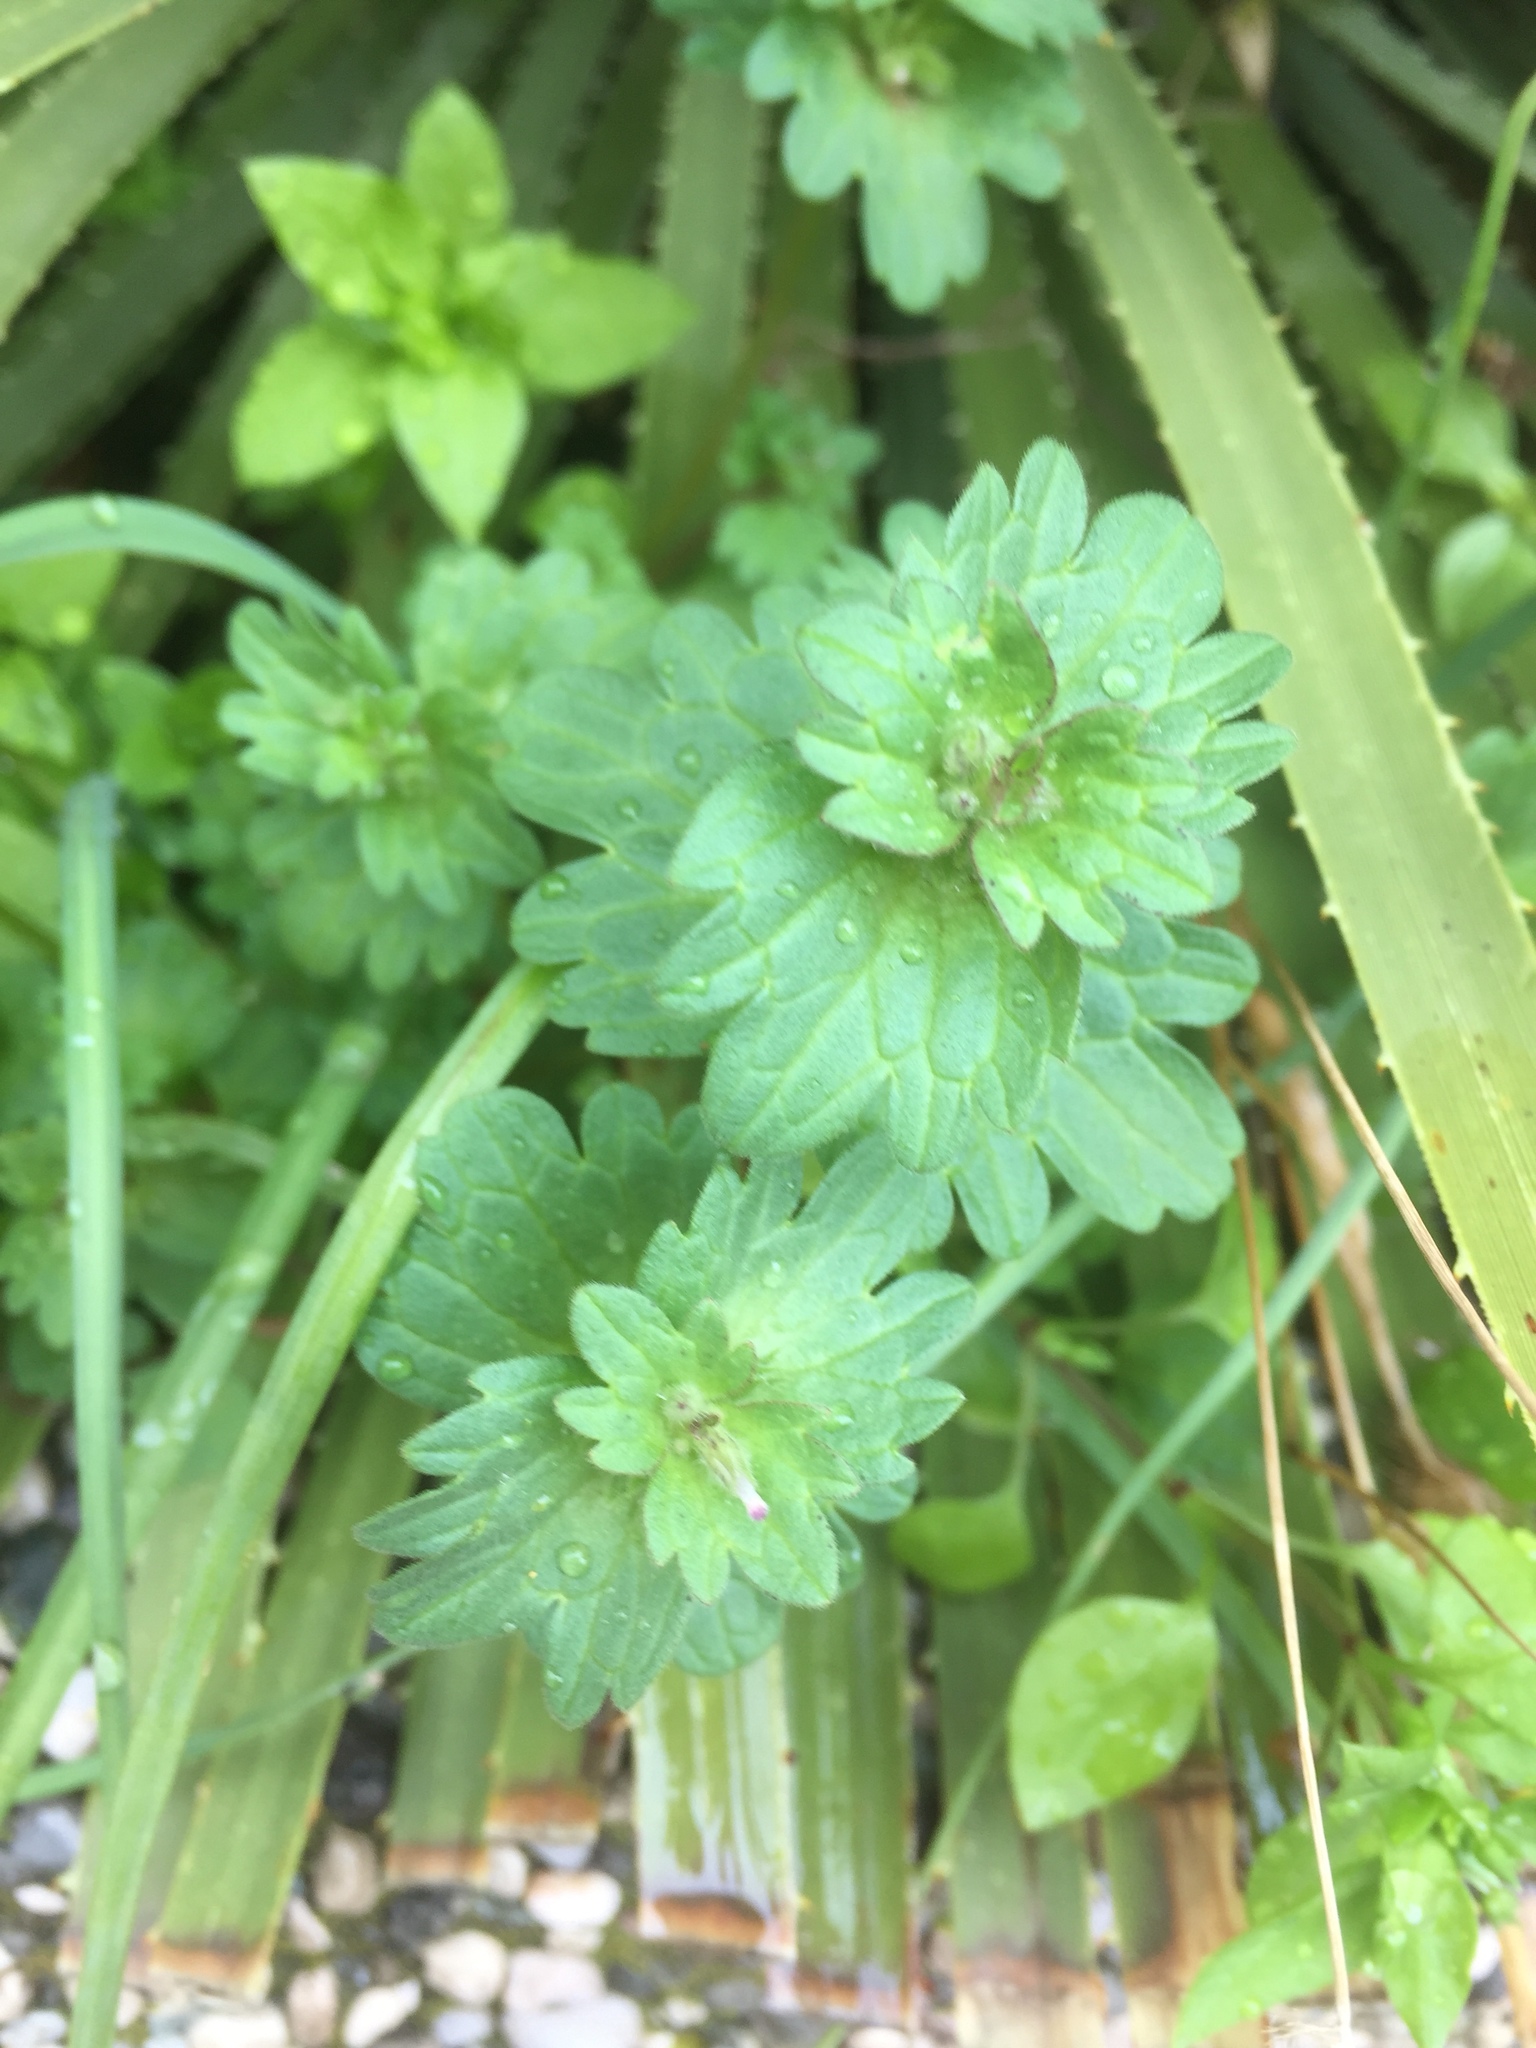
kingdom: Plantae
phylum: Tracheophyta
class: Magnoliopsida
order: Lamiales
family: Lamiaceae
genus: Lamium
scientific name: Lamium amplexicaule
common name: Henbit dead-nettle
